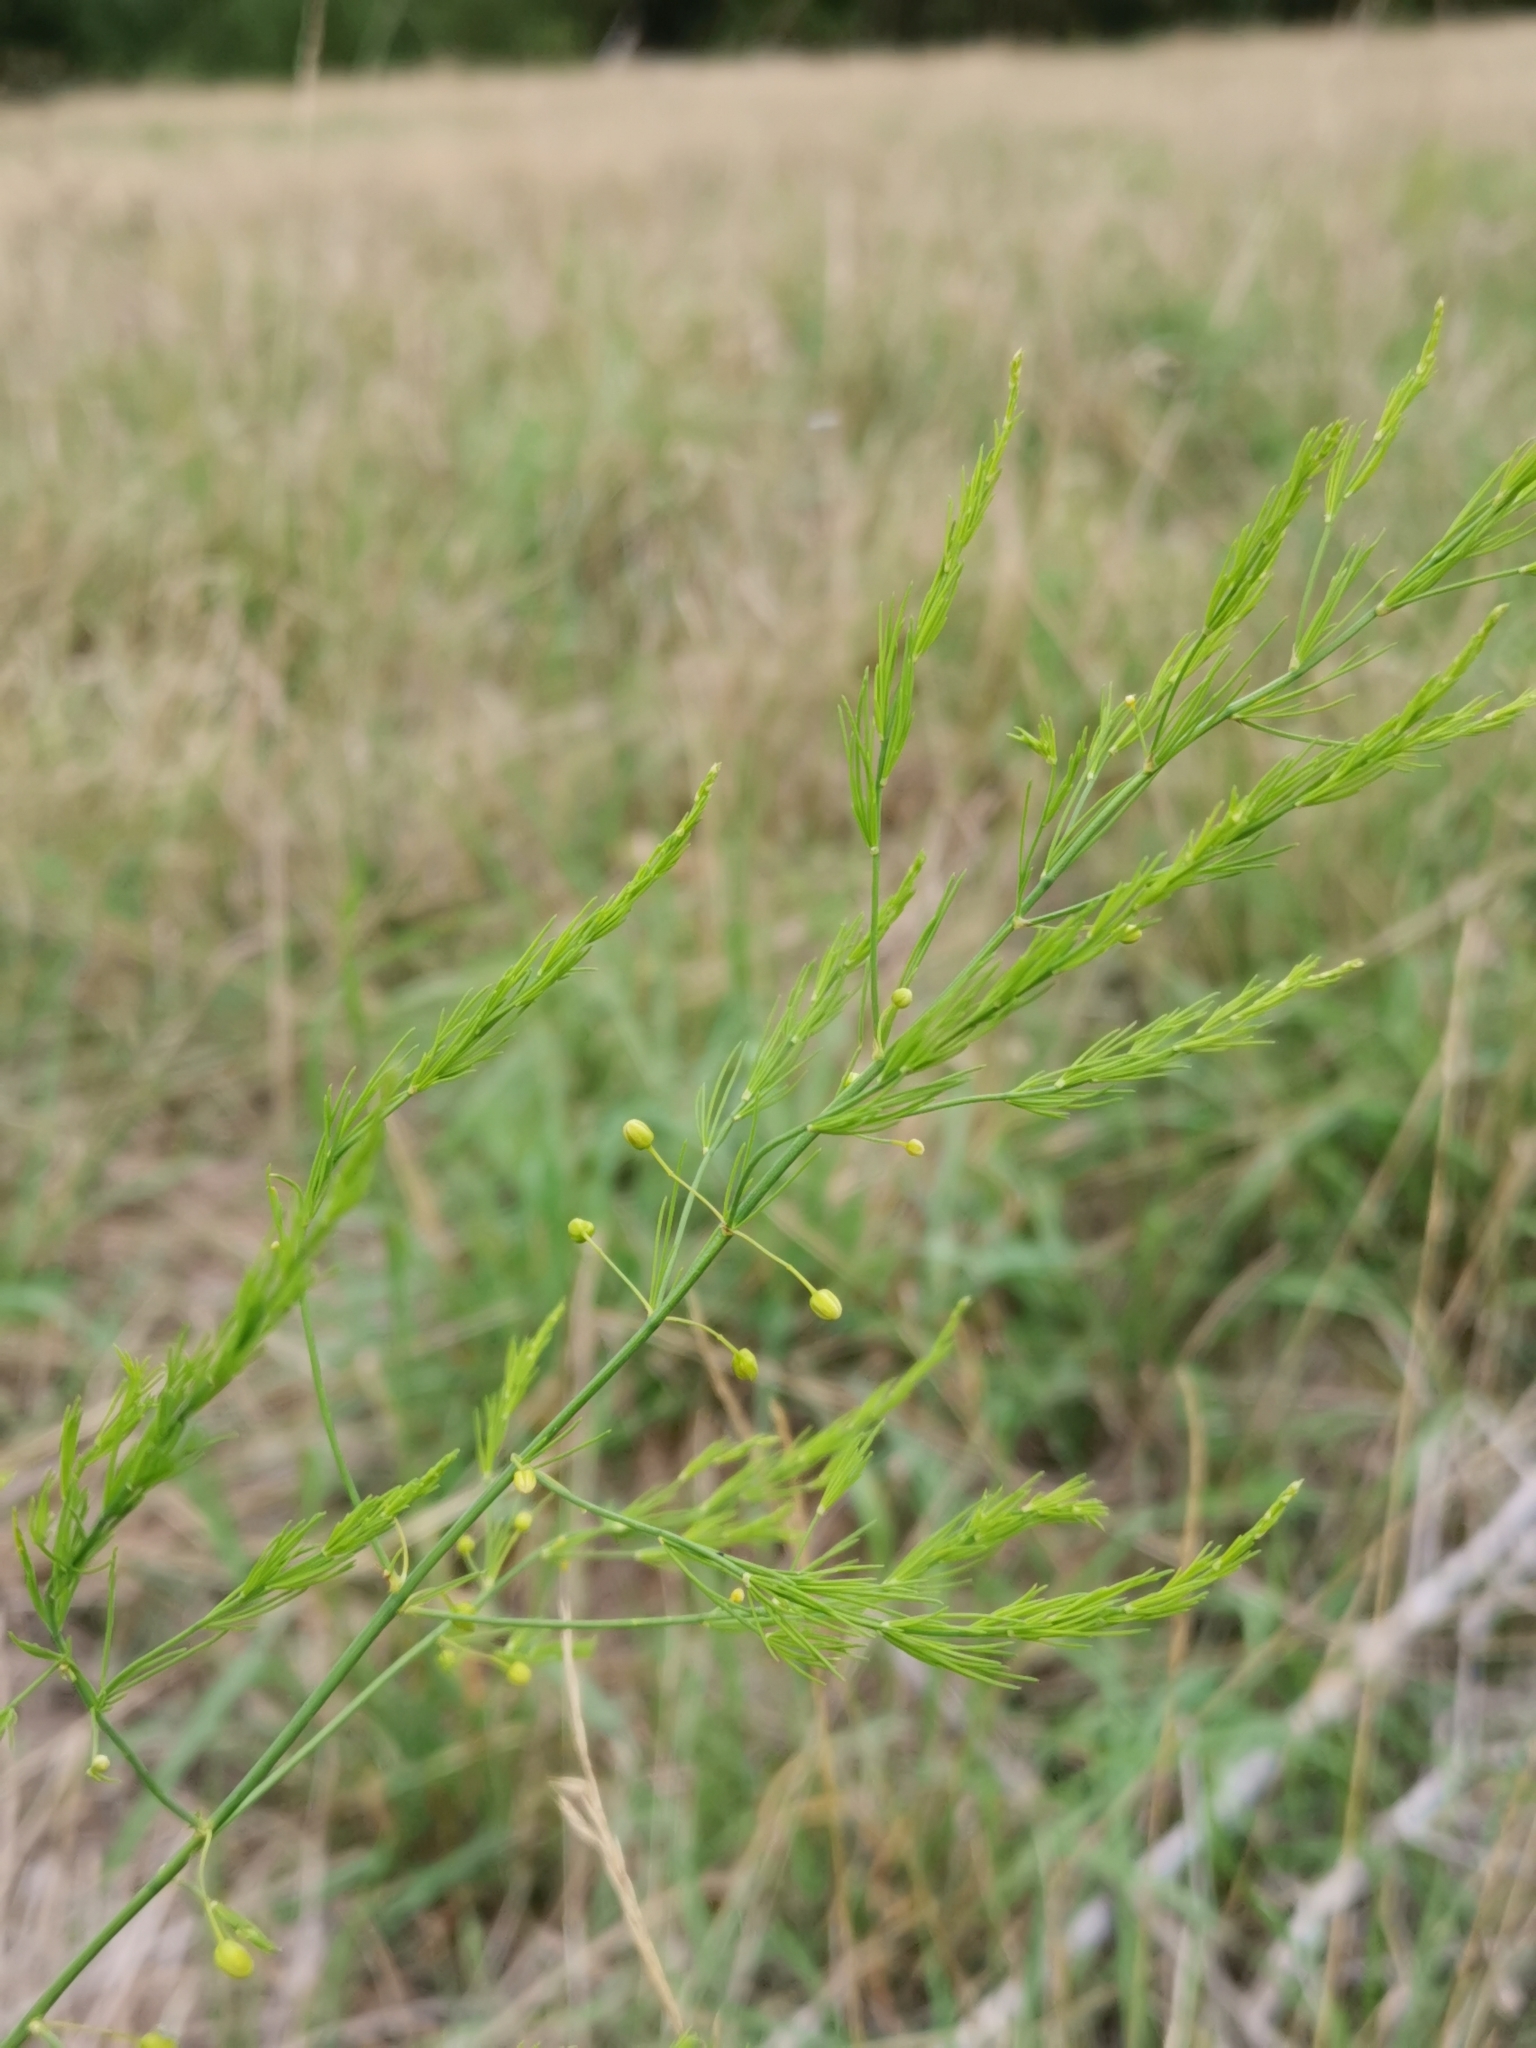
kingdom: Plantae
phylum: Tracheophyta
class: Liliopsida
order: Asparagales
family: Asparagaceae
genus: Asparagus
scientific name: Asparagus officinalis
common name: Garden asparagus
